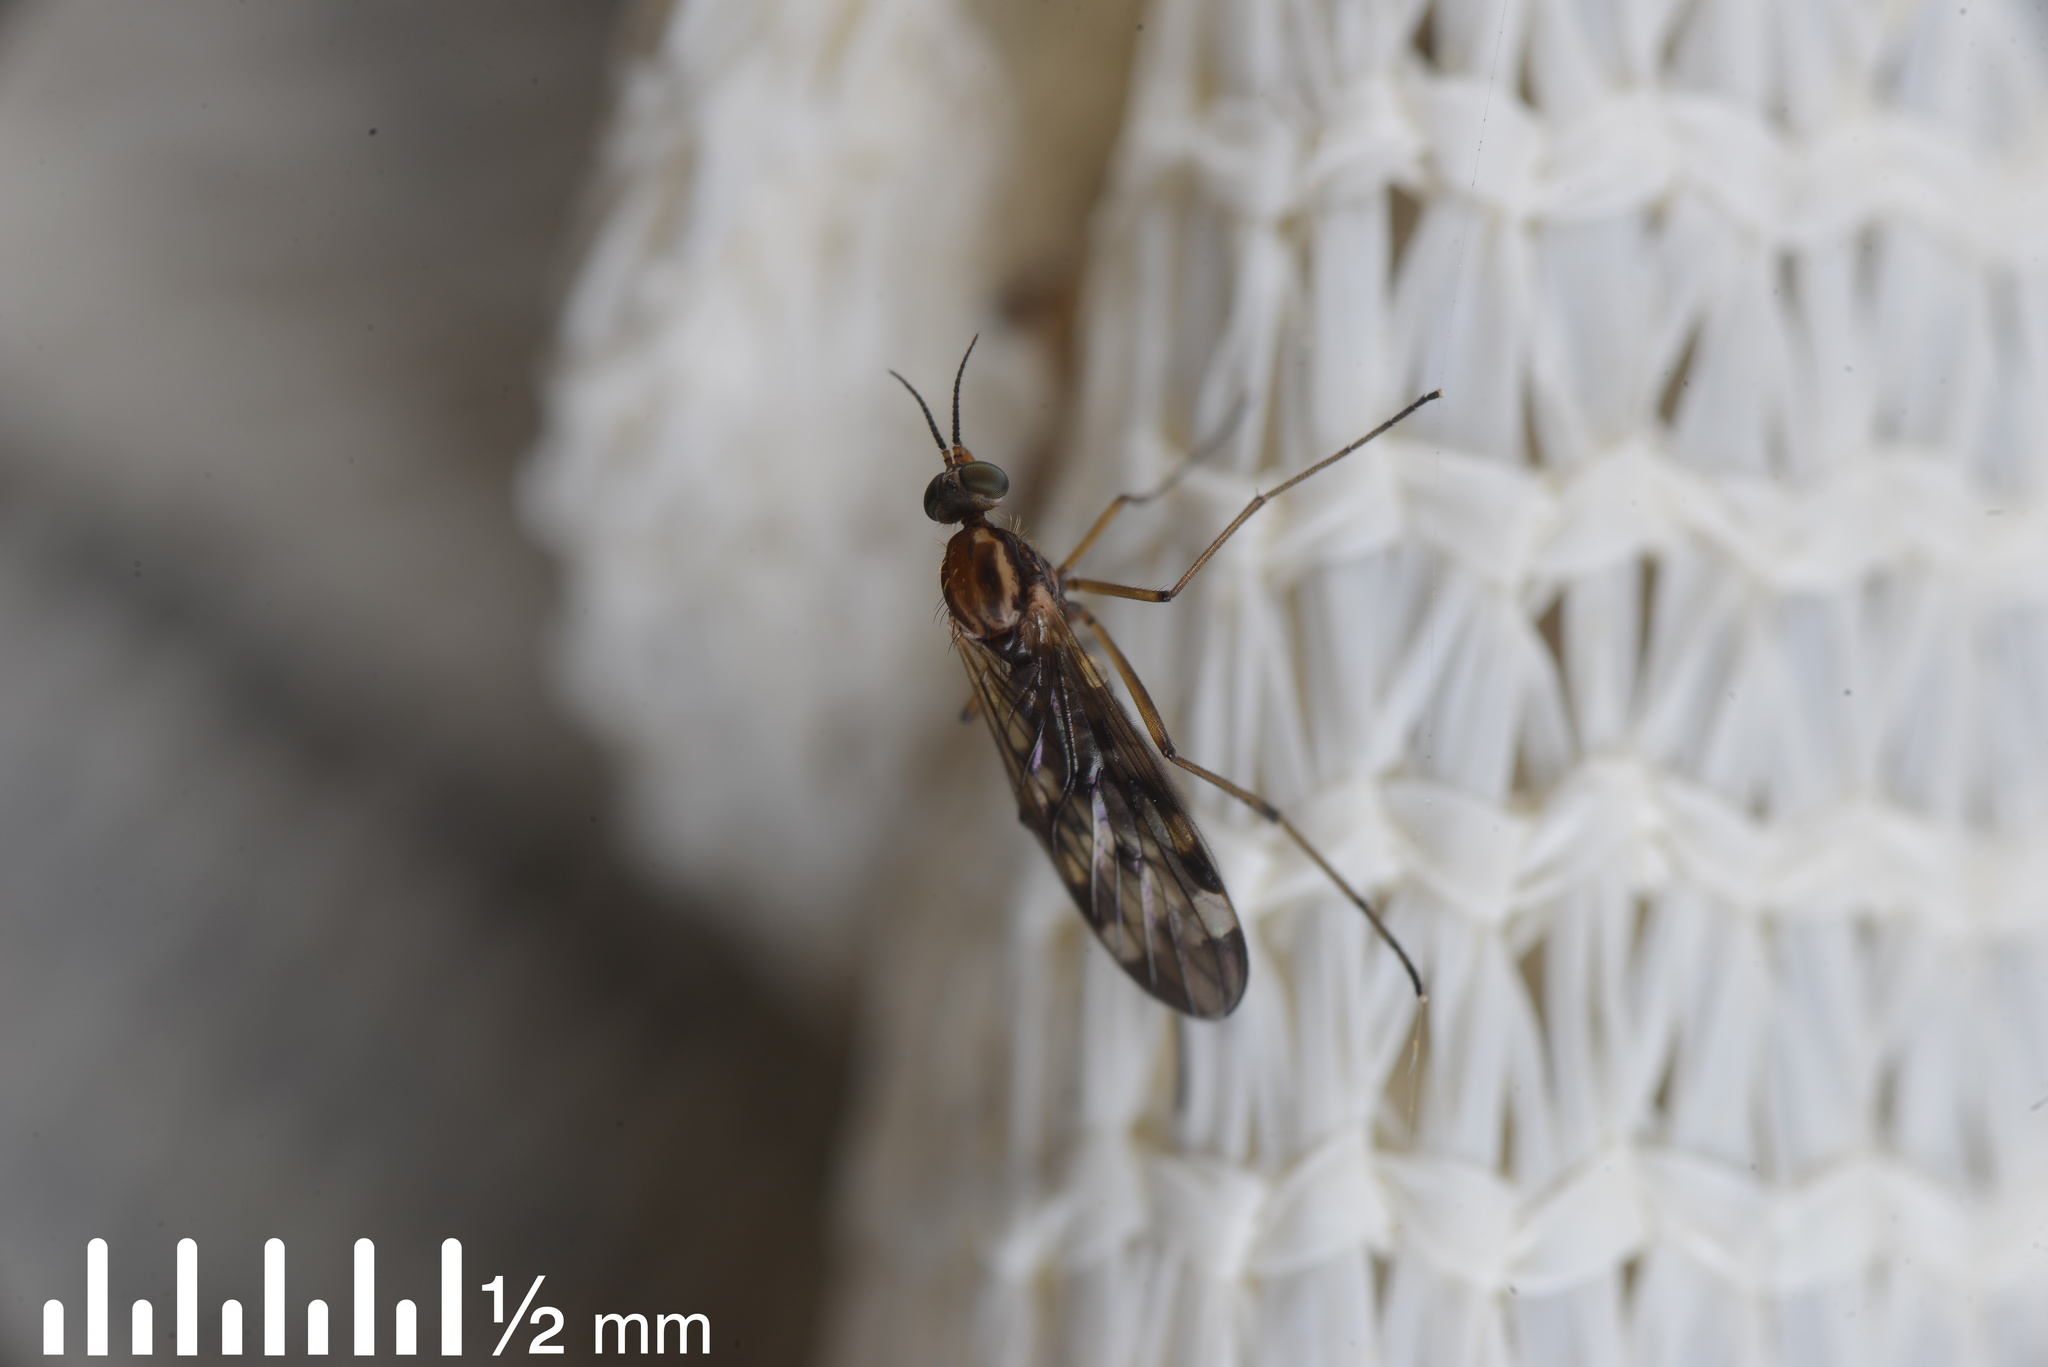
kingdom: Animalia
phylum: Arthropoda
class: Insecta
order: Diptera
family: Anisopodidae
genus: Sylvicola
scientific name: Sylvicola notatus
